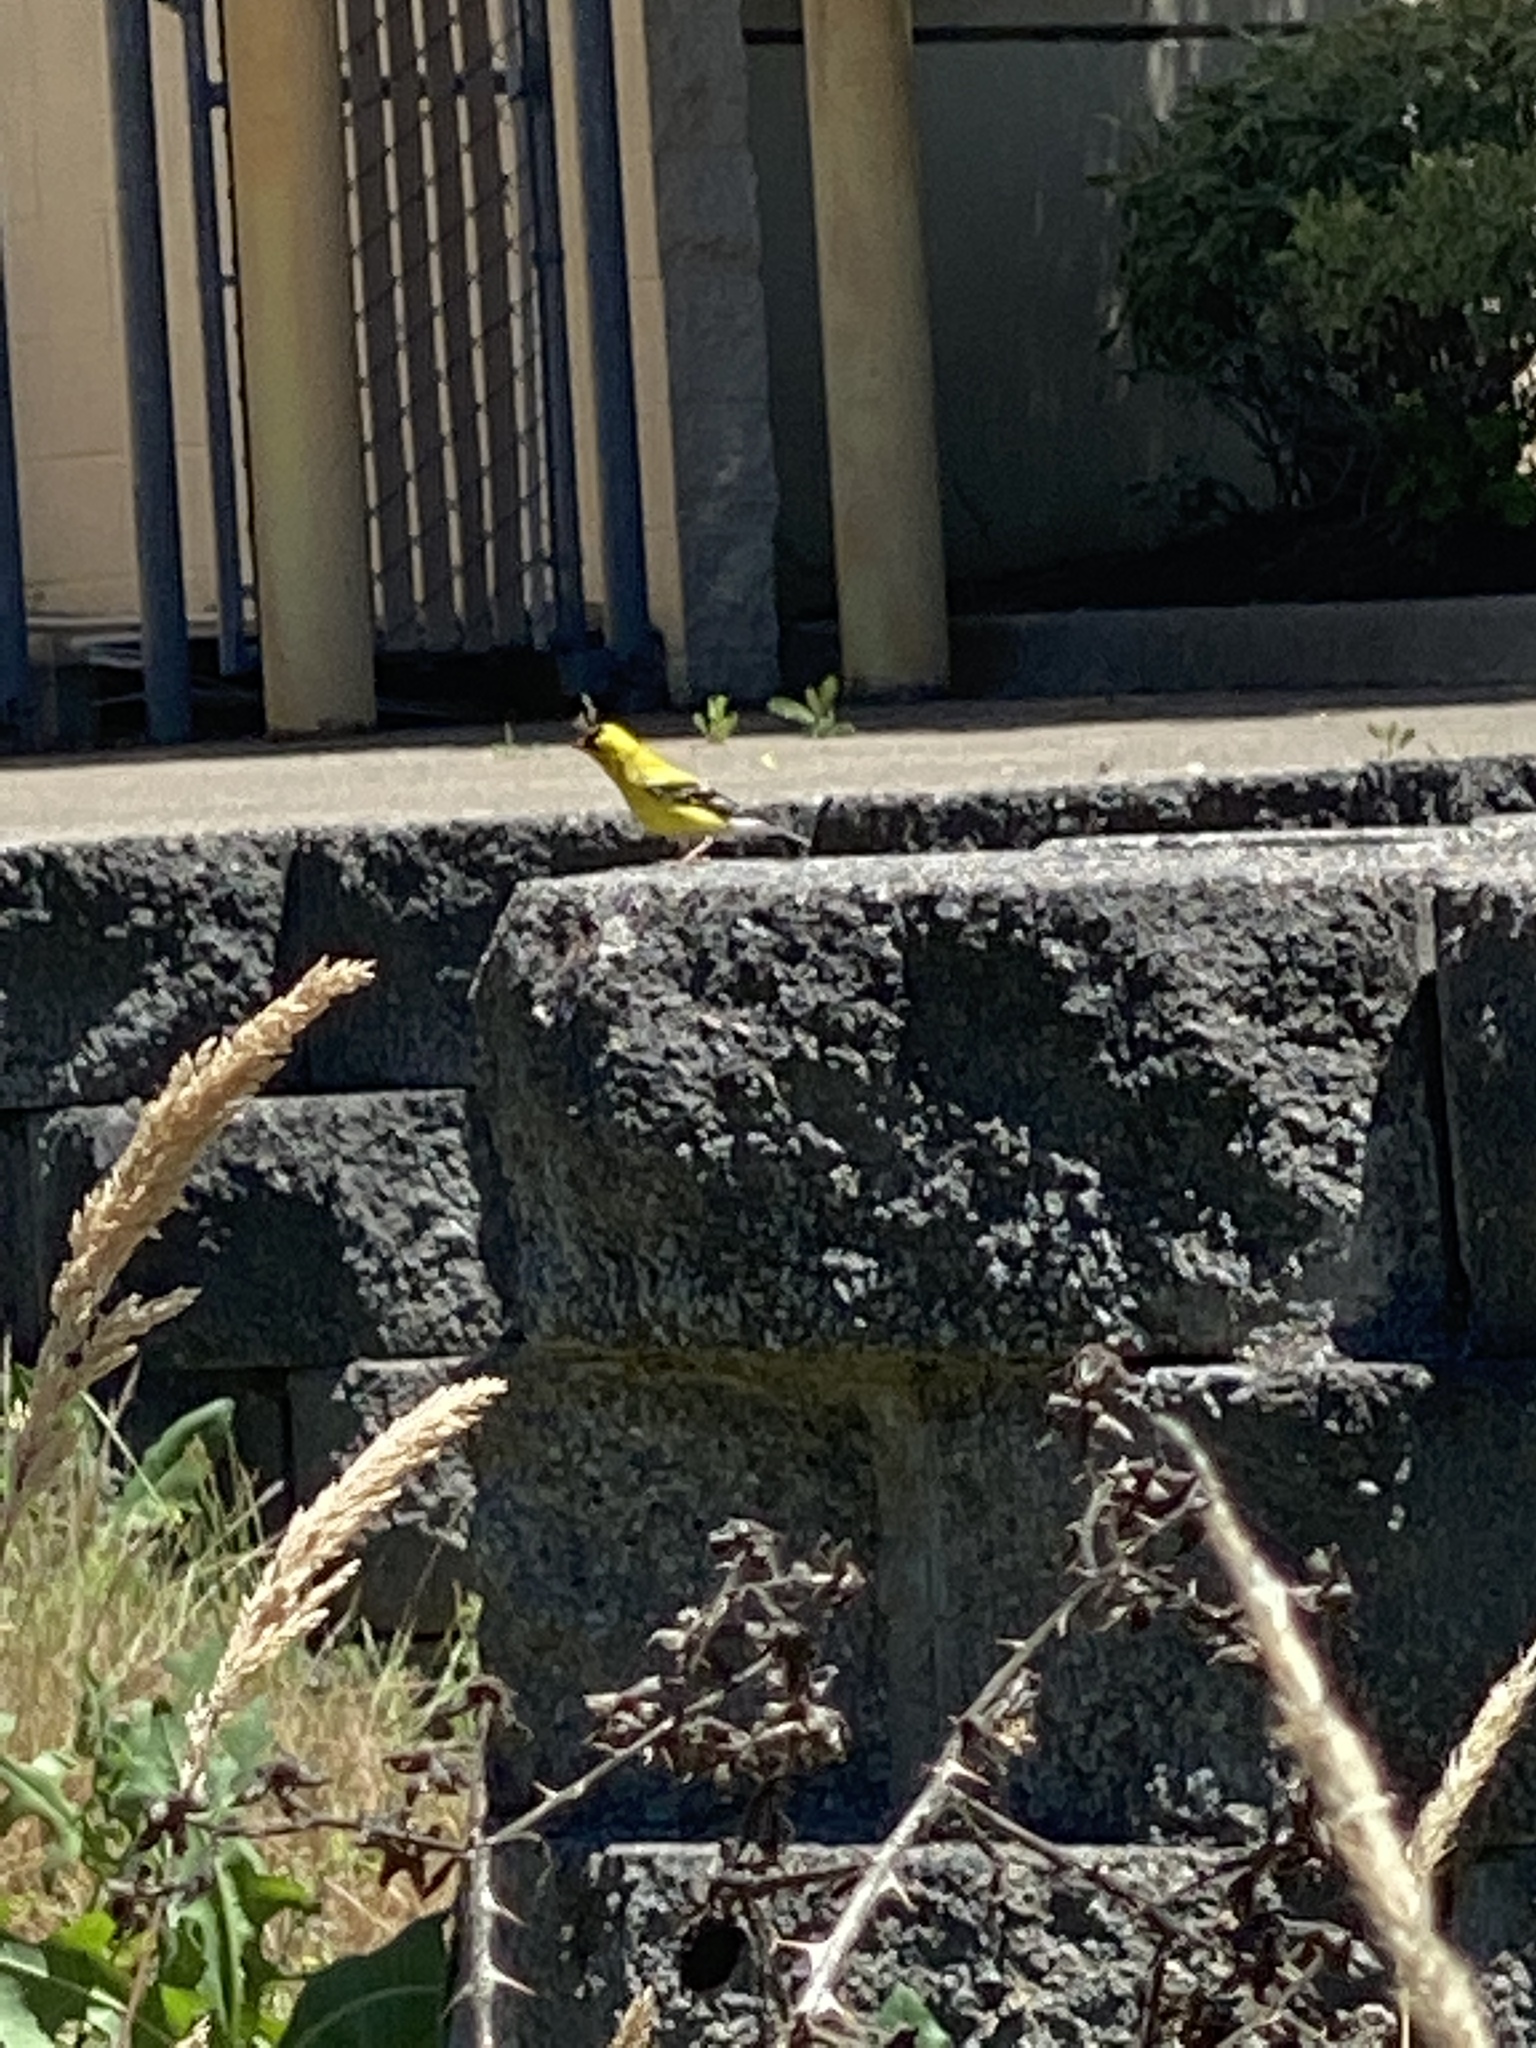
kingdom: Animalia
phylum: Chordata
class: Aves
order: Passeriformes
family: Fringillidae
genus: Spinus
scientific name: Spinus tristis
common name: American goldfinch
